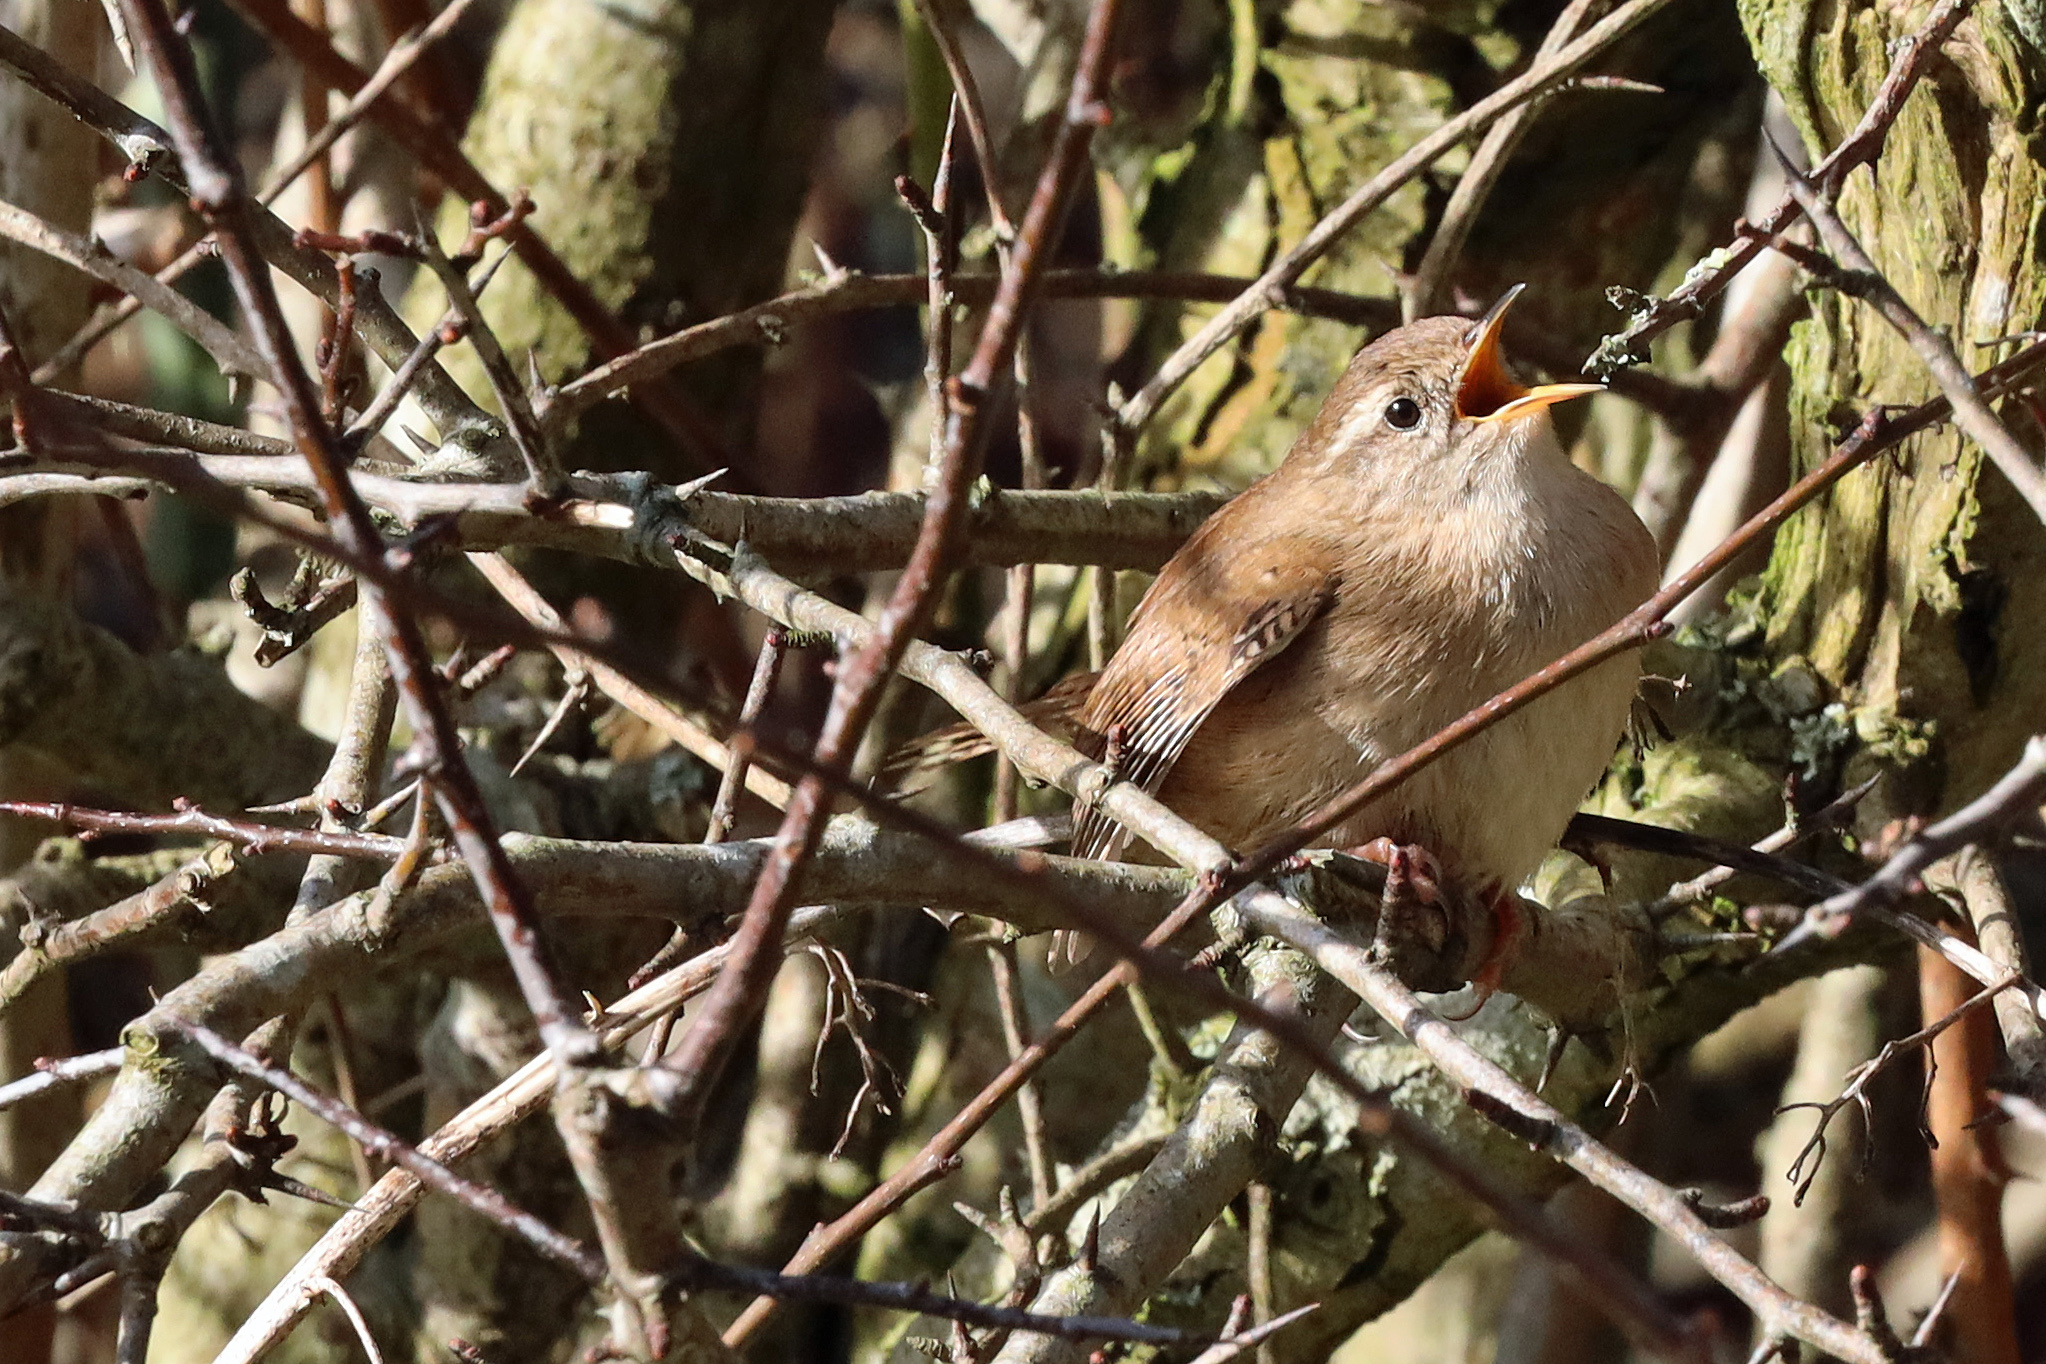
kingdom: Animalia
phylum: Chordata
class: Aves
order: Passeriformes
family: Troglodytidae
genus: Troglodytes
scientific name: Troglodytes troglodytes
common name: Eurasian wren
